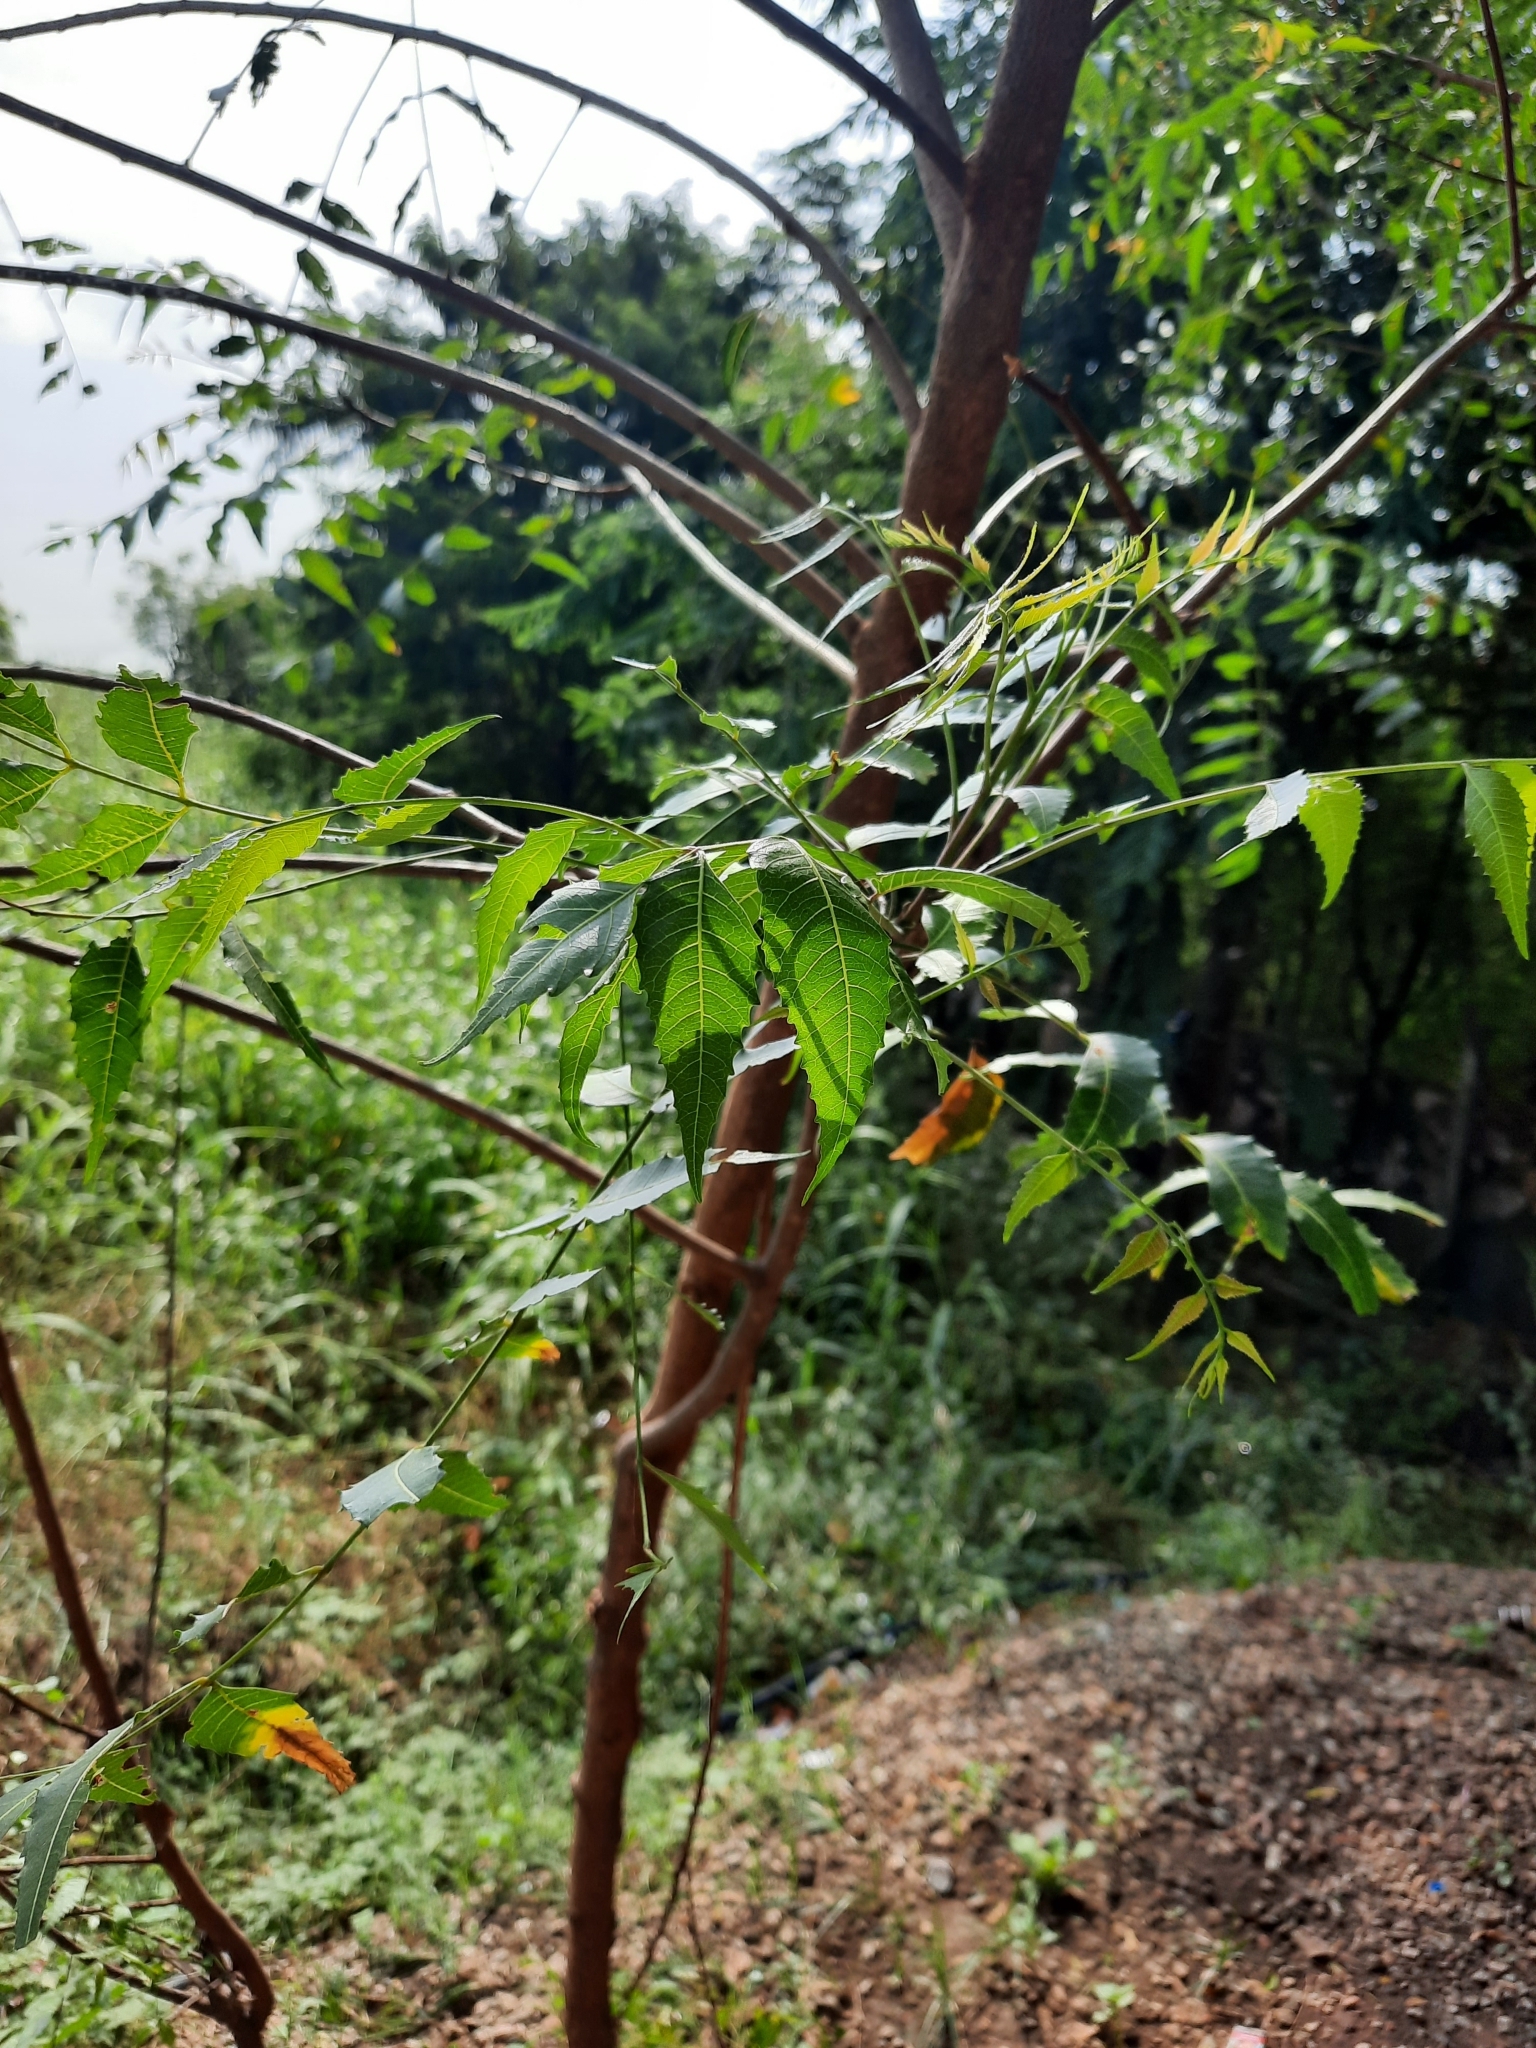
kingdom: Plantae
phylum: Tracheophyta
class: Magnoliopsida
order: Sapindales
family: Meliaceae
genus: Azadirachta
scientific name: Azadirachta indica
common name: Neem
